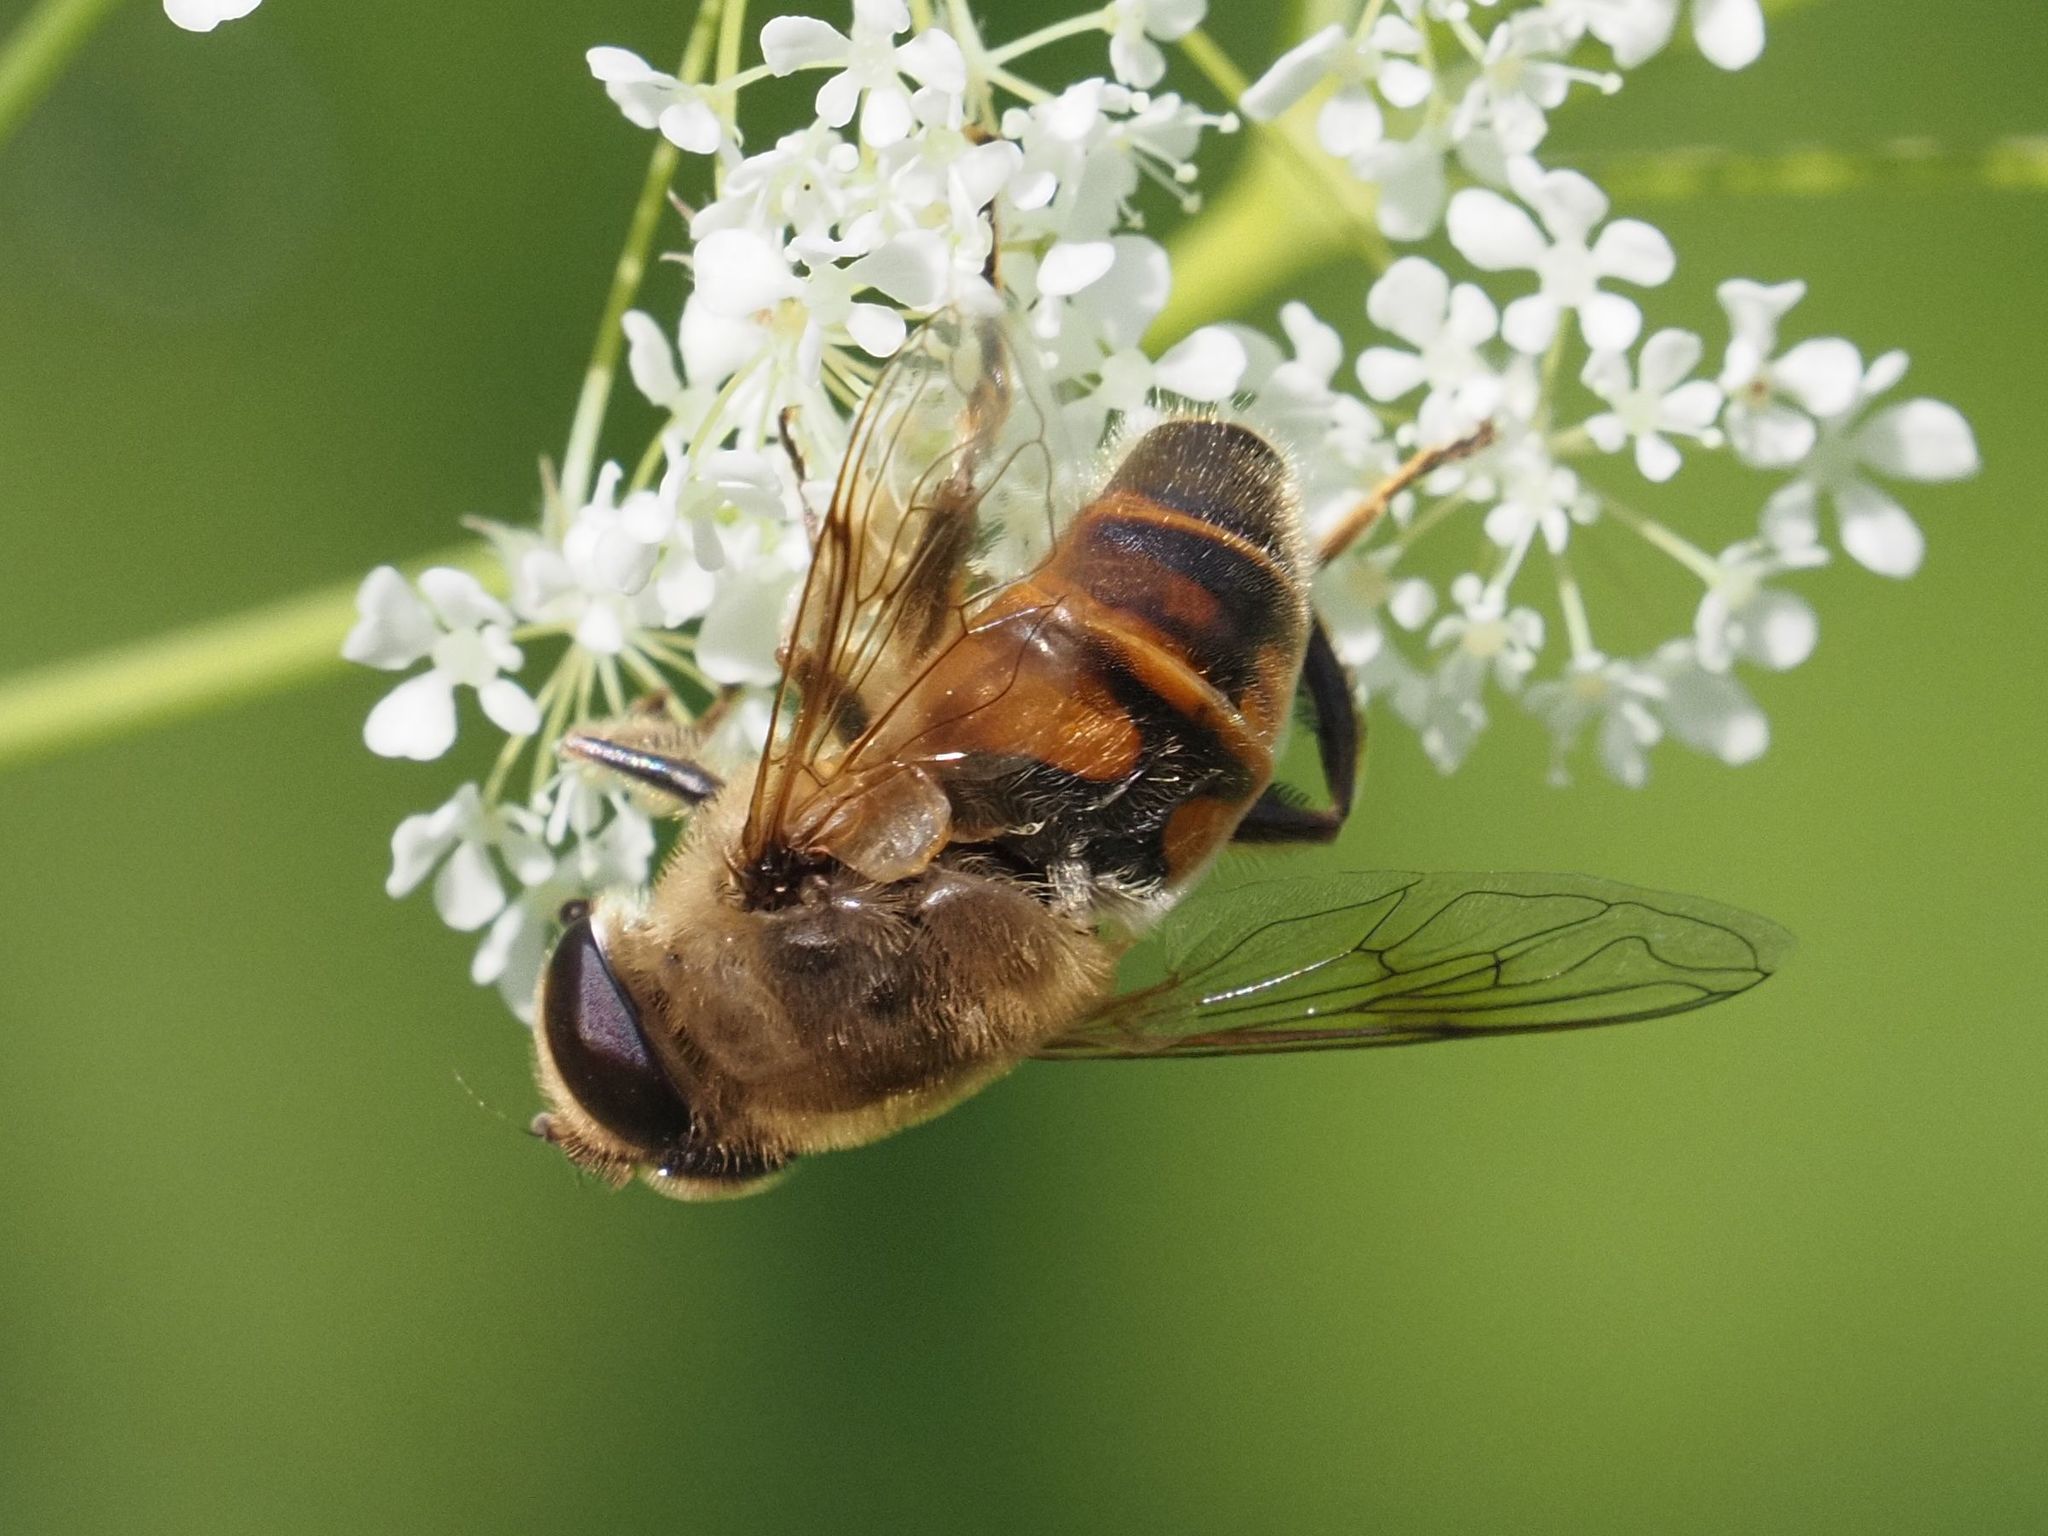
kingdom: Animalia
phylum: Arthropoda
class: Insecta
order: Diptera
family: Syrphidae
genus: Eristalis
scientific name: Eristalis tenax
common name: Drone fly
